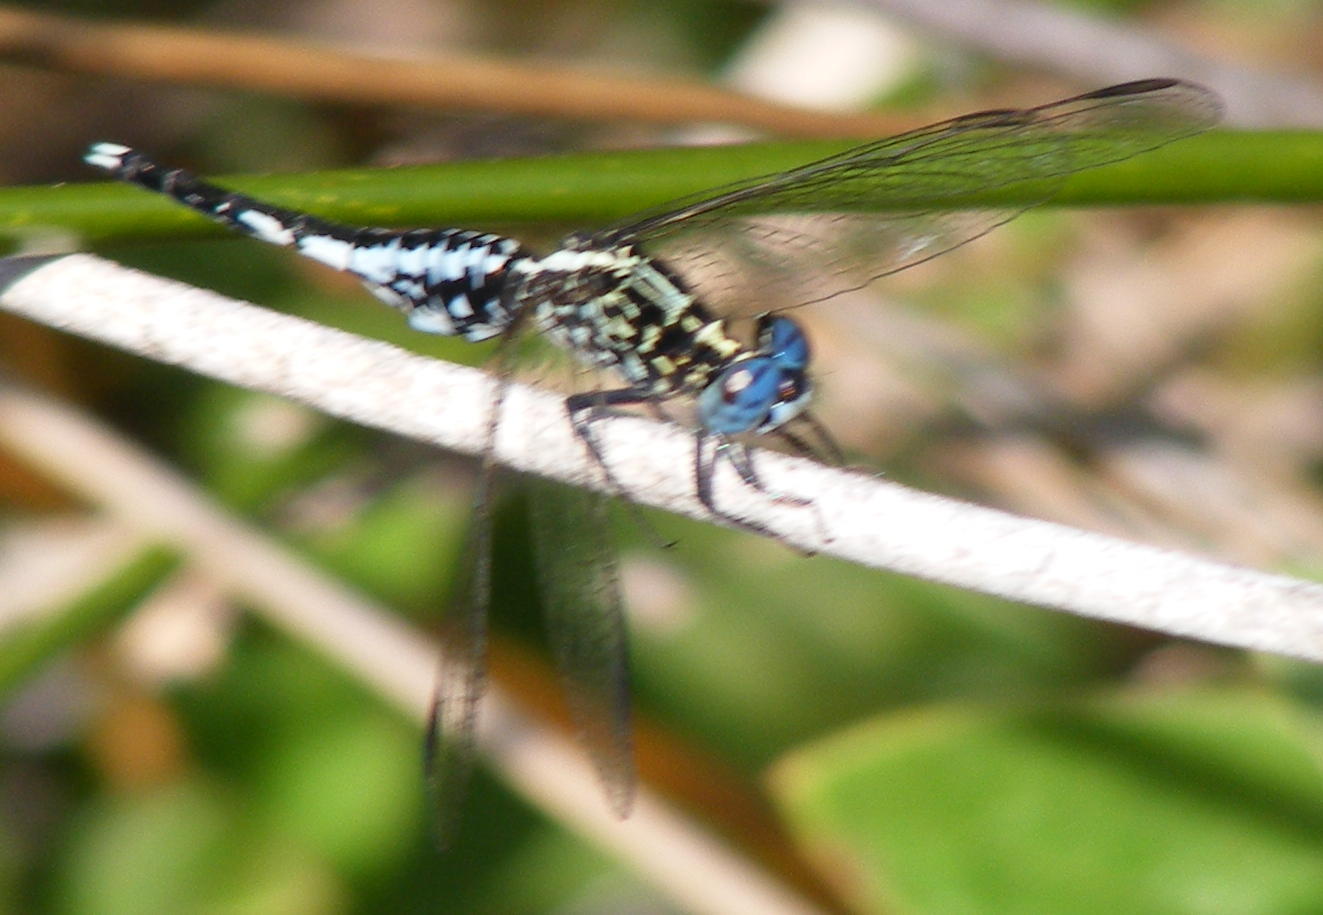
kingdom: Animalia
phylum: Arthropoda
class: Insecta
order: Odonata
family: Libellulidae
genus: Acisoma
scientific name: Acisoma inflatum
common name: Stout pintail
